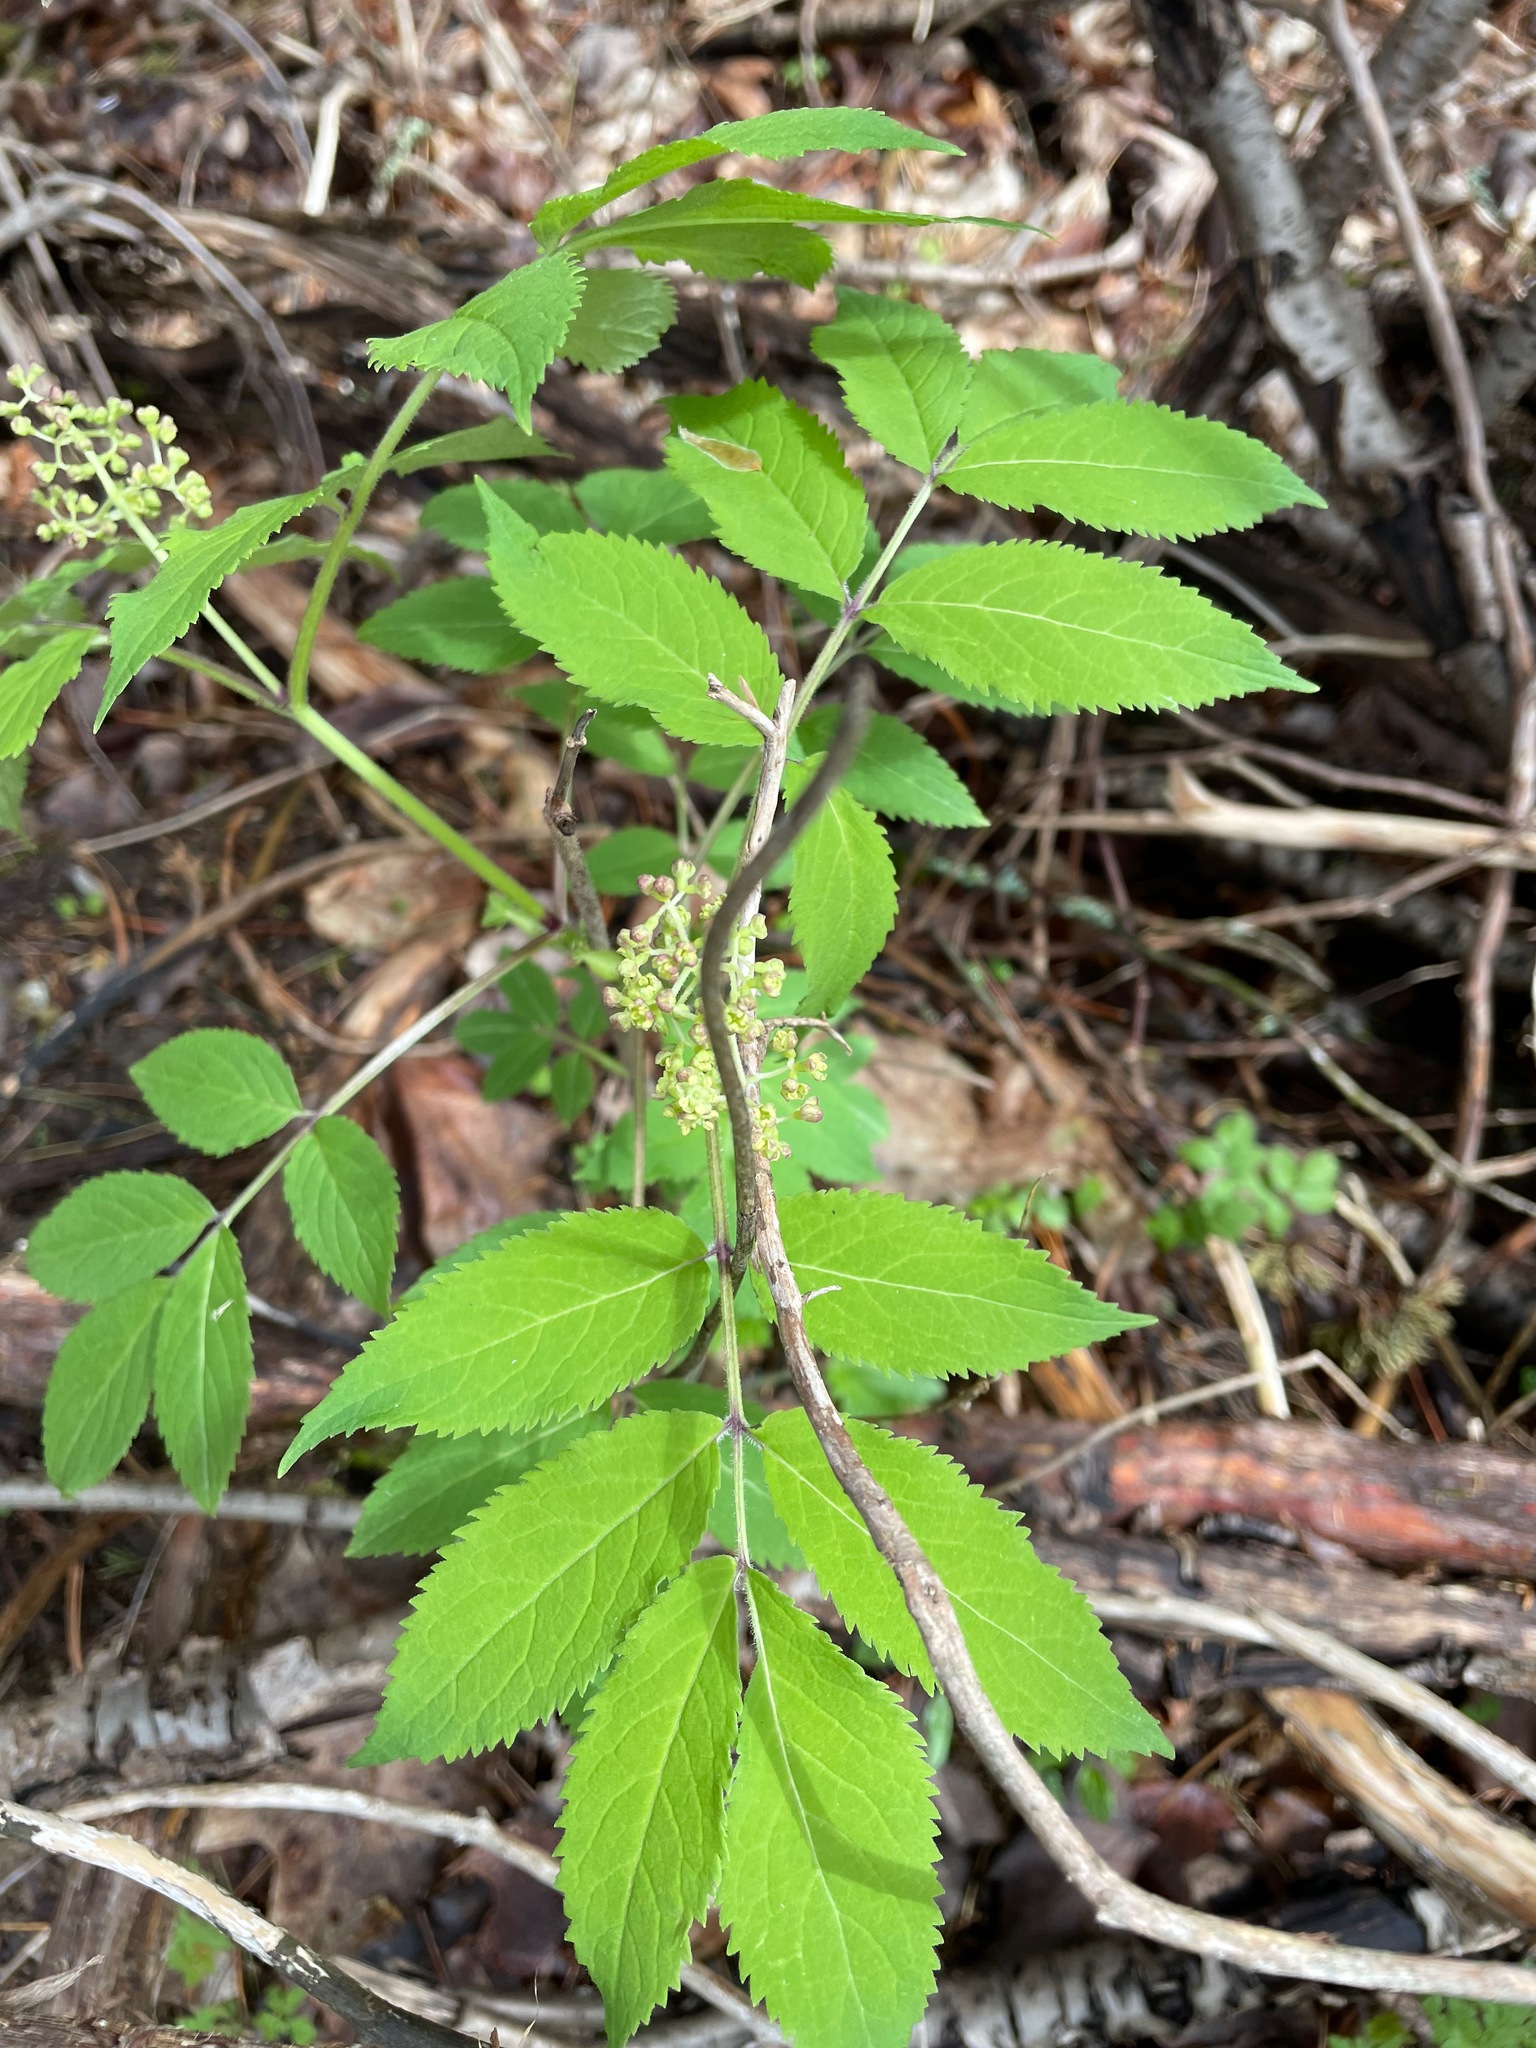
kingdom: Plantae
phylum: Tracheophyta
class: Magnoliopsida
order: Dipsacales
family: Viburnaceae
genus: Sambucus
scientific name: Sambucus racemosa
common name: Red-berried elder
